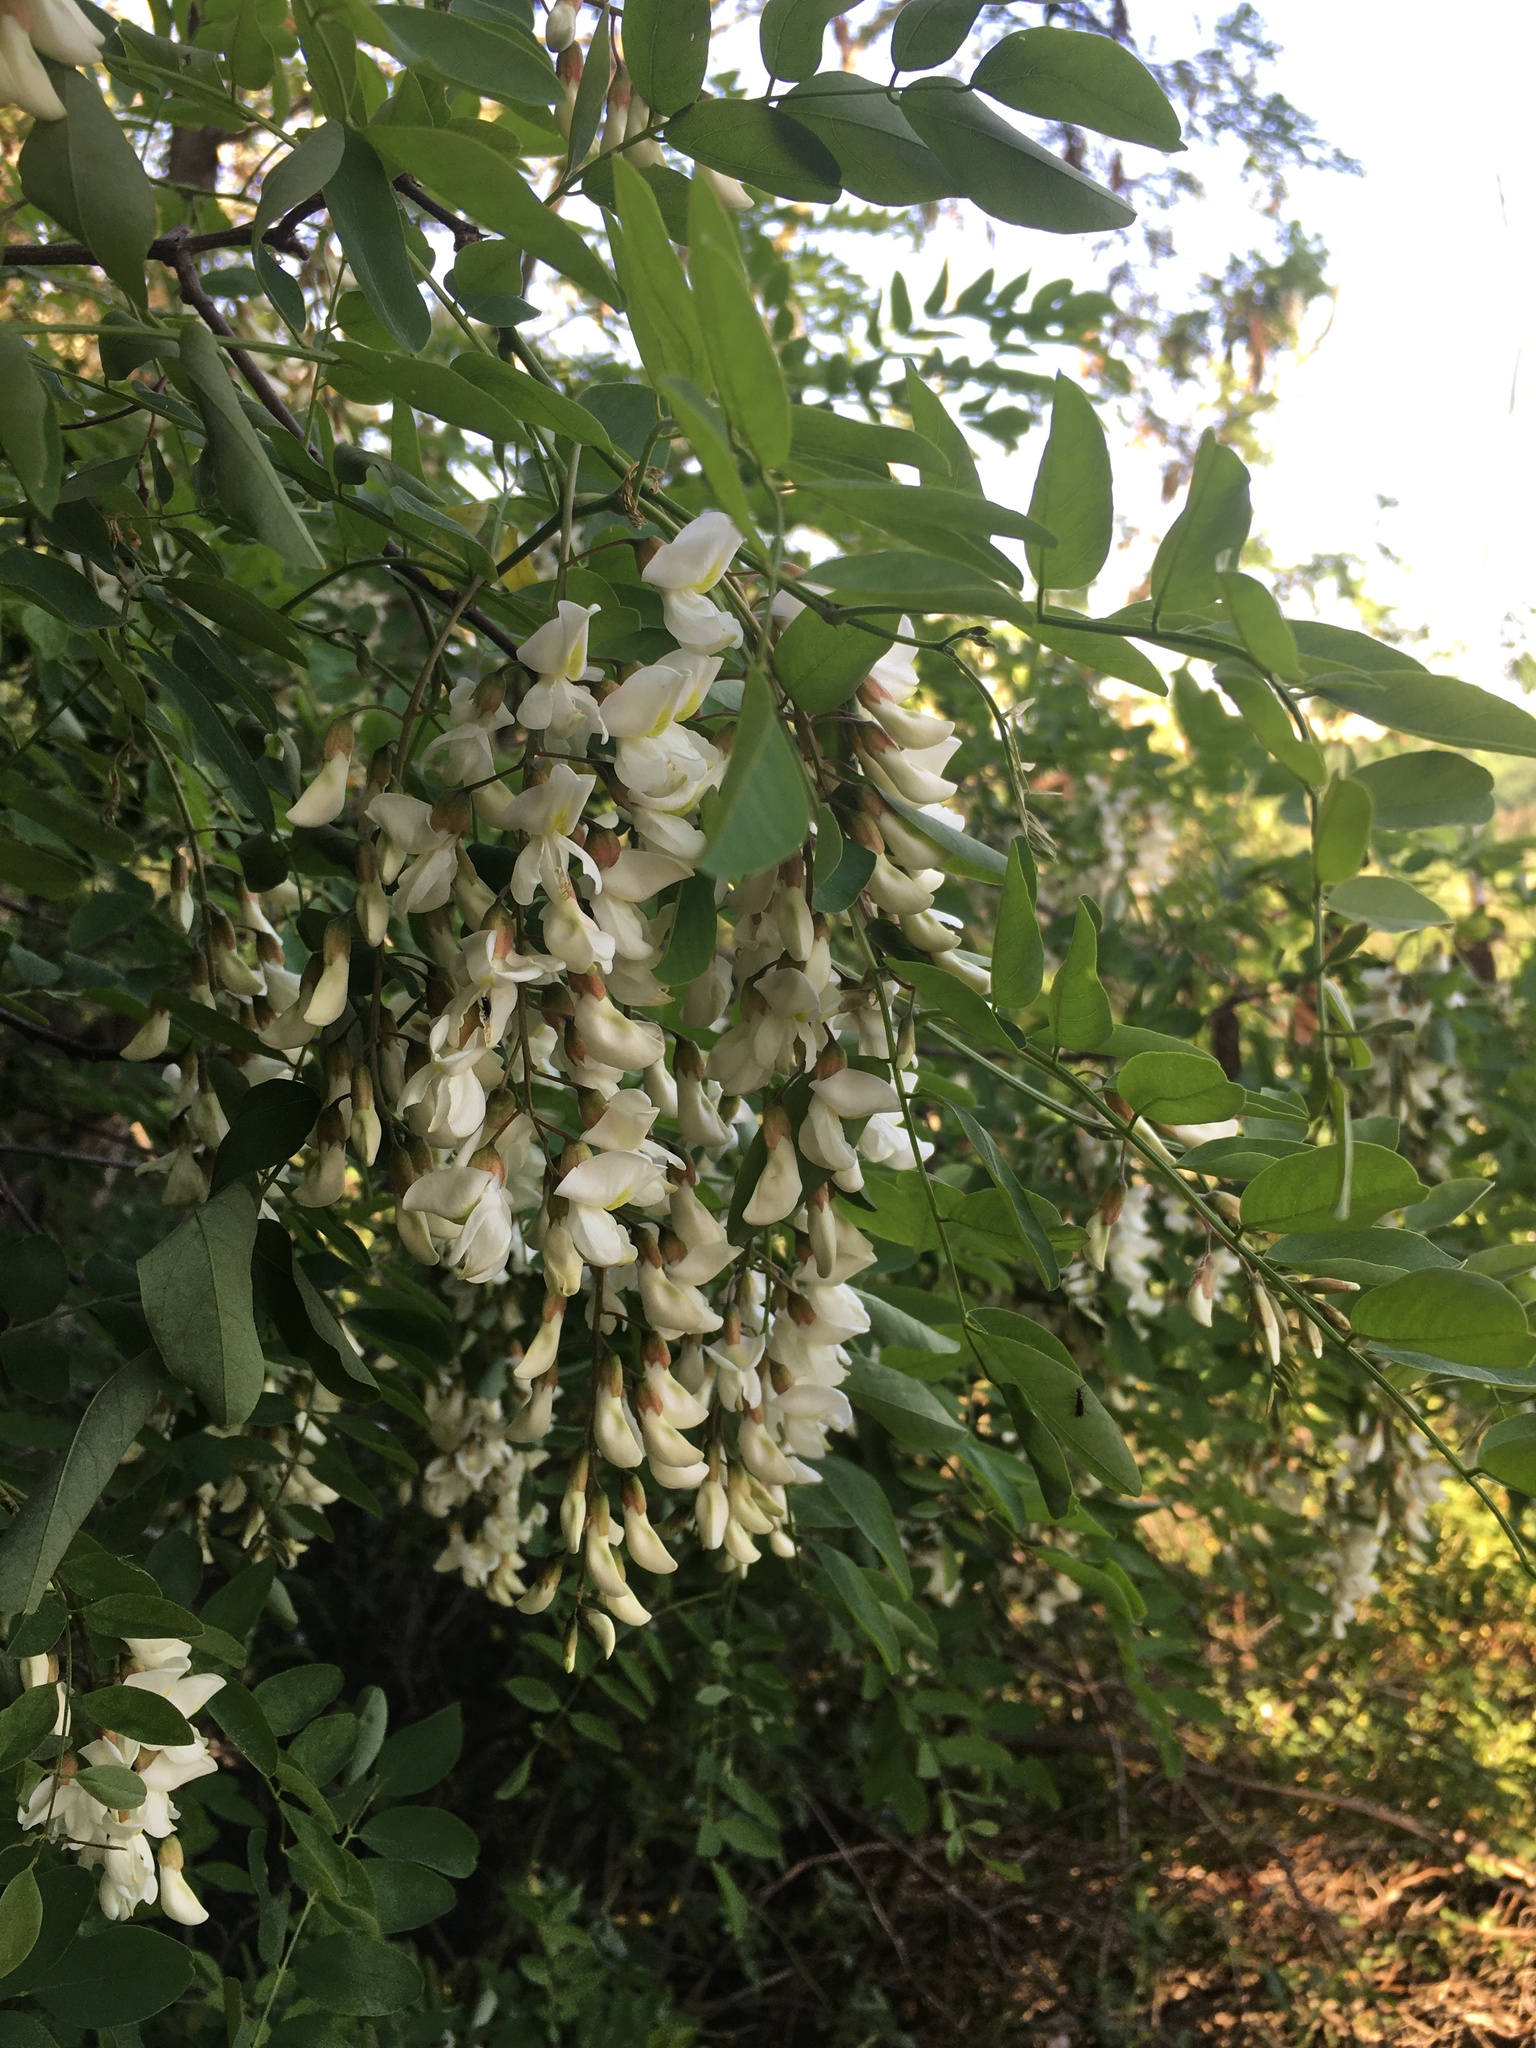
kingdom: Plantae
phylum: Tracheophyta
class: Magnoliopsida
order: Fabales
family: Fabaceae
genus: Robinia
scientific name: Robinia pseudoacacia
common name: Black locust
